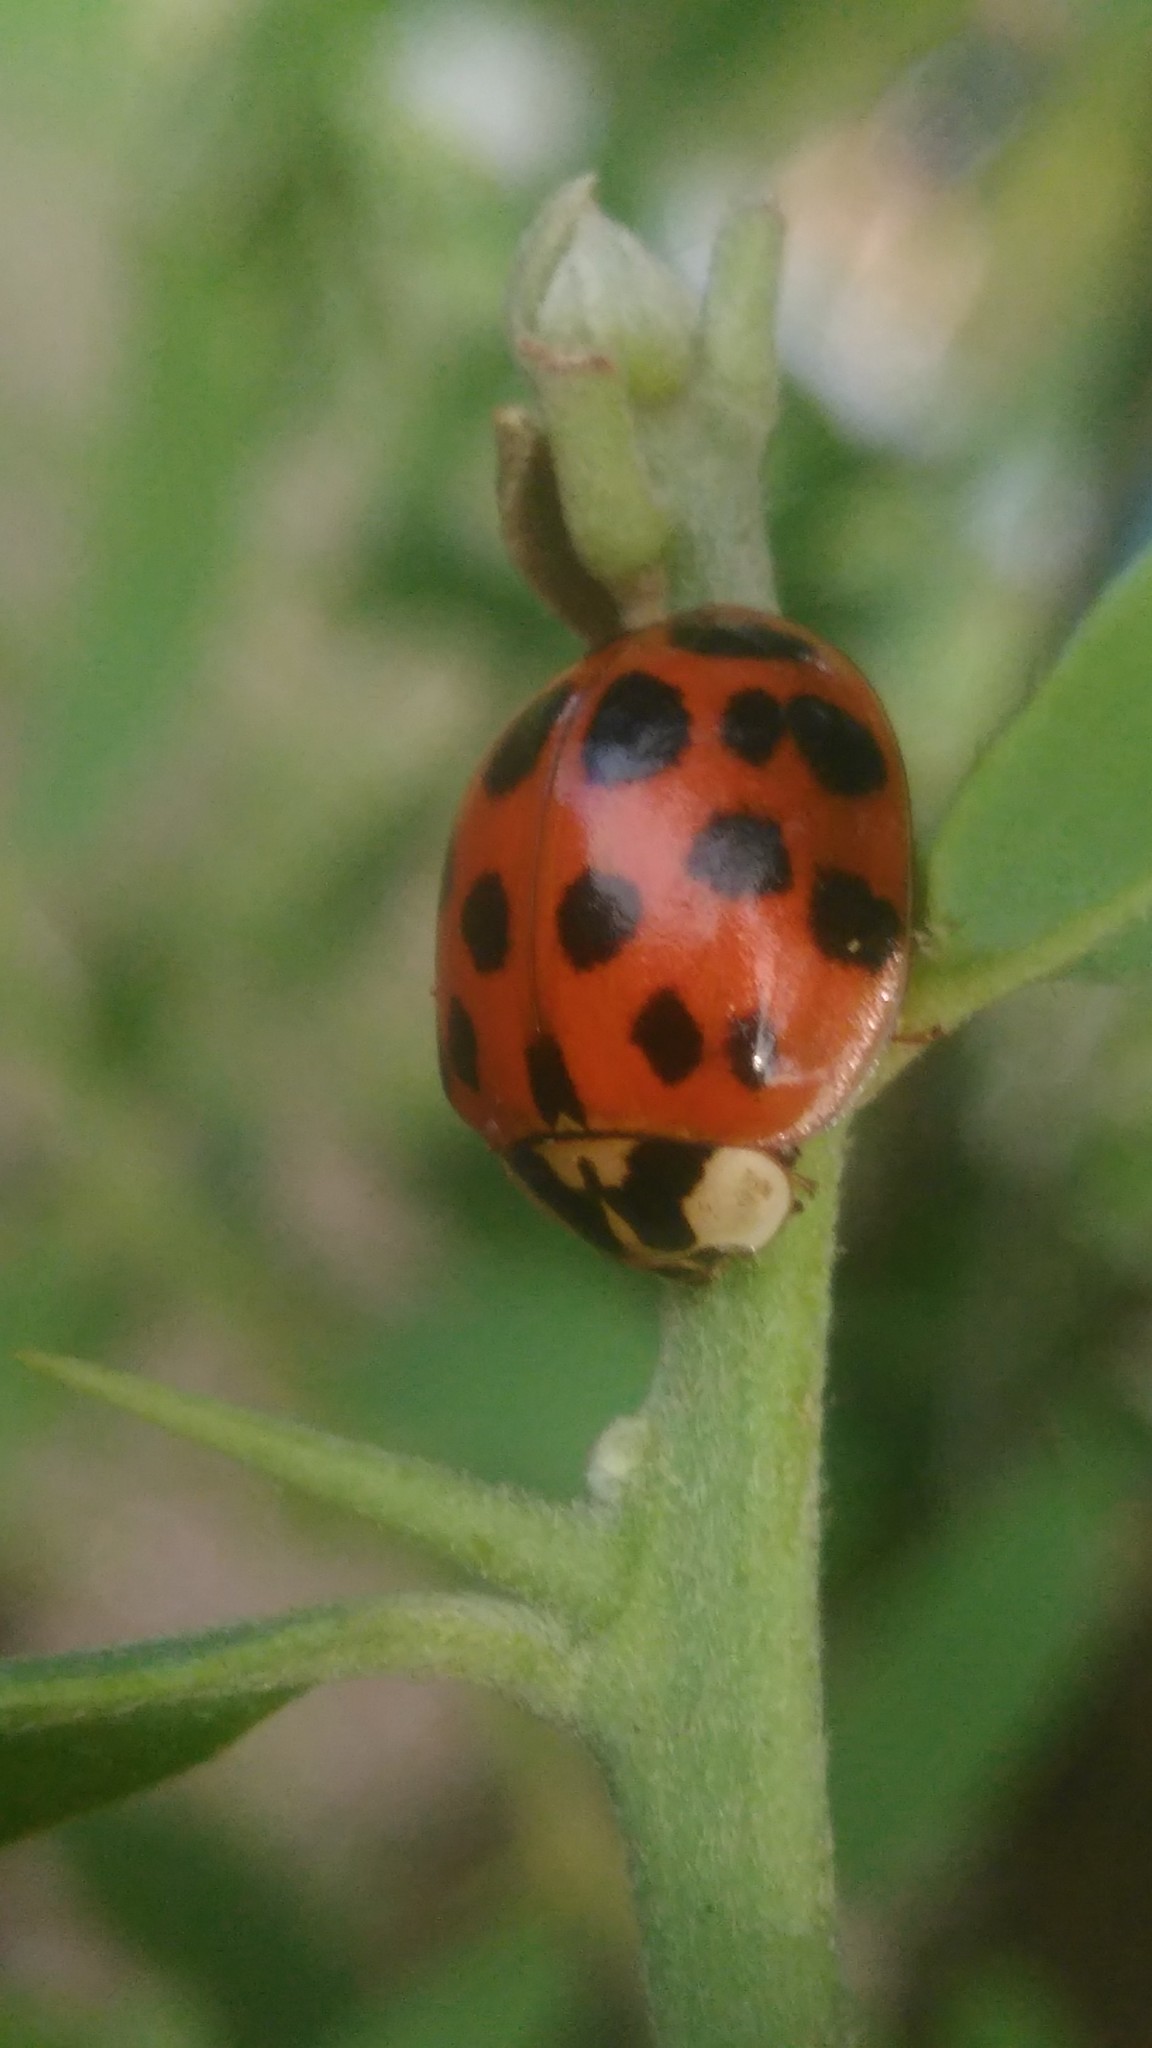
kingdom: Animalia
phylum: Arthropoda
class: Insecta
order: Coleoptera
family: Coccinellidae
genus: Harmonia
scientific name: Harmonia axyridis
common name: Harlequin ladybird
